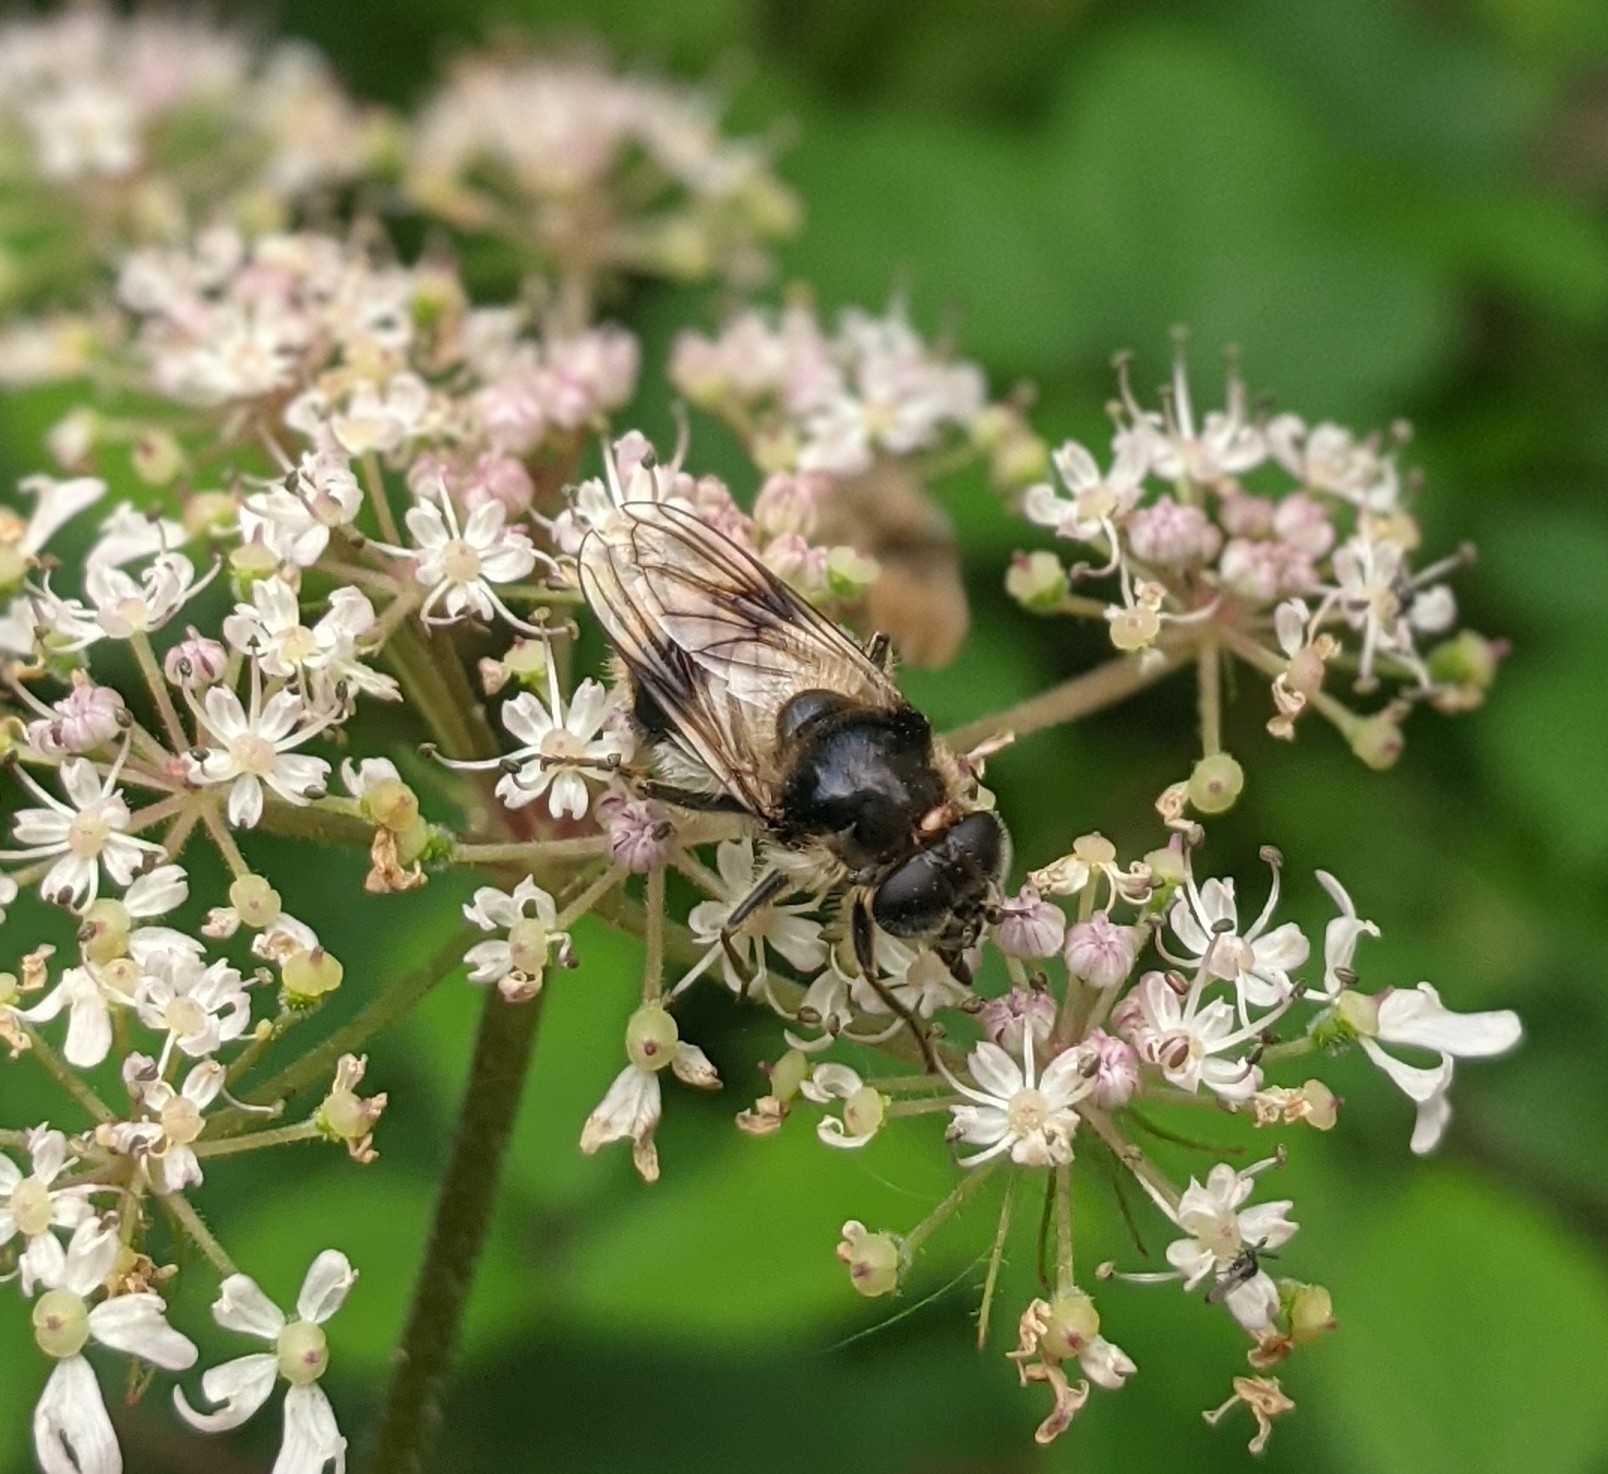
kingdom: Animalia
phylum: Arthropoda
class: Insecta
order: Diptera
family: Syrphidae
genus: Cheilosia
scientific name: Cheilosia illustrata
